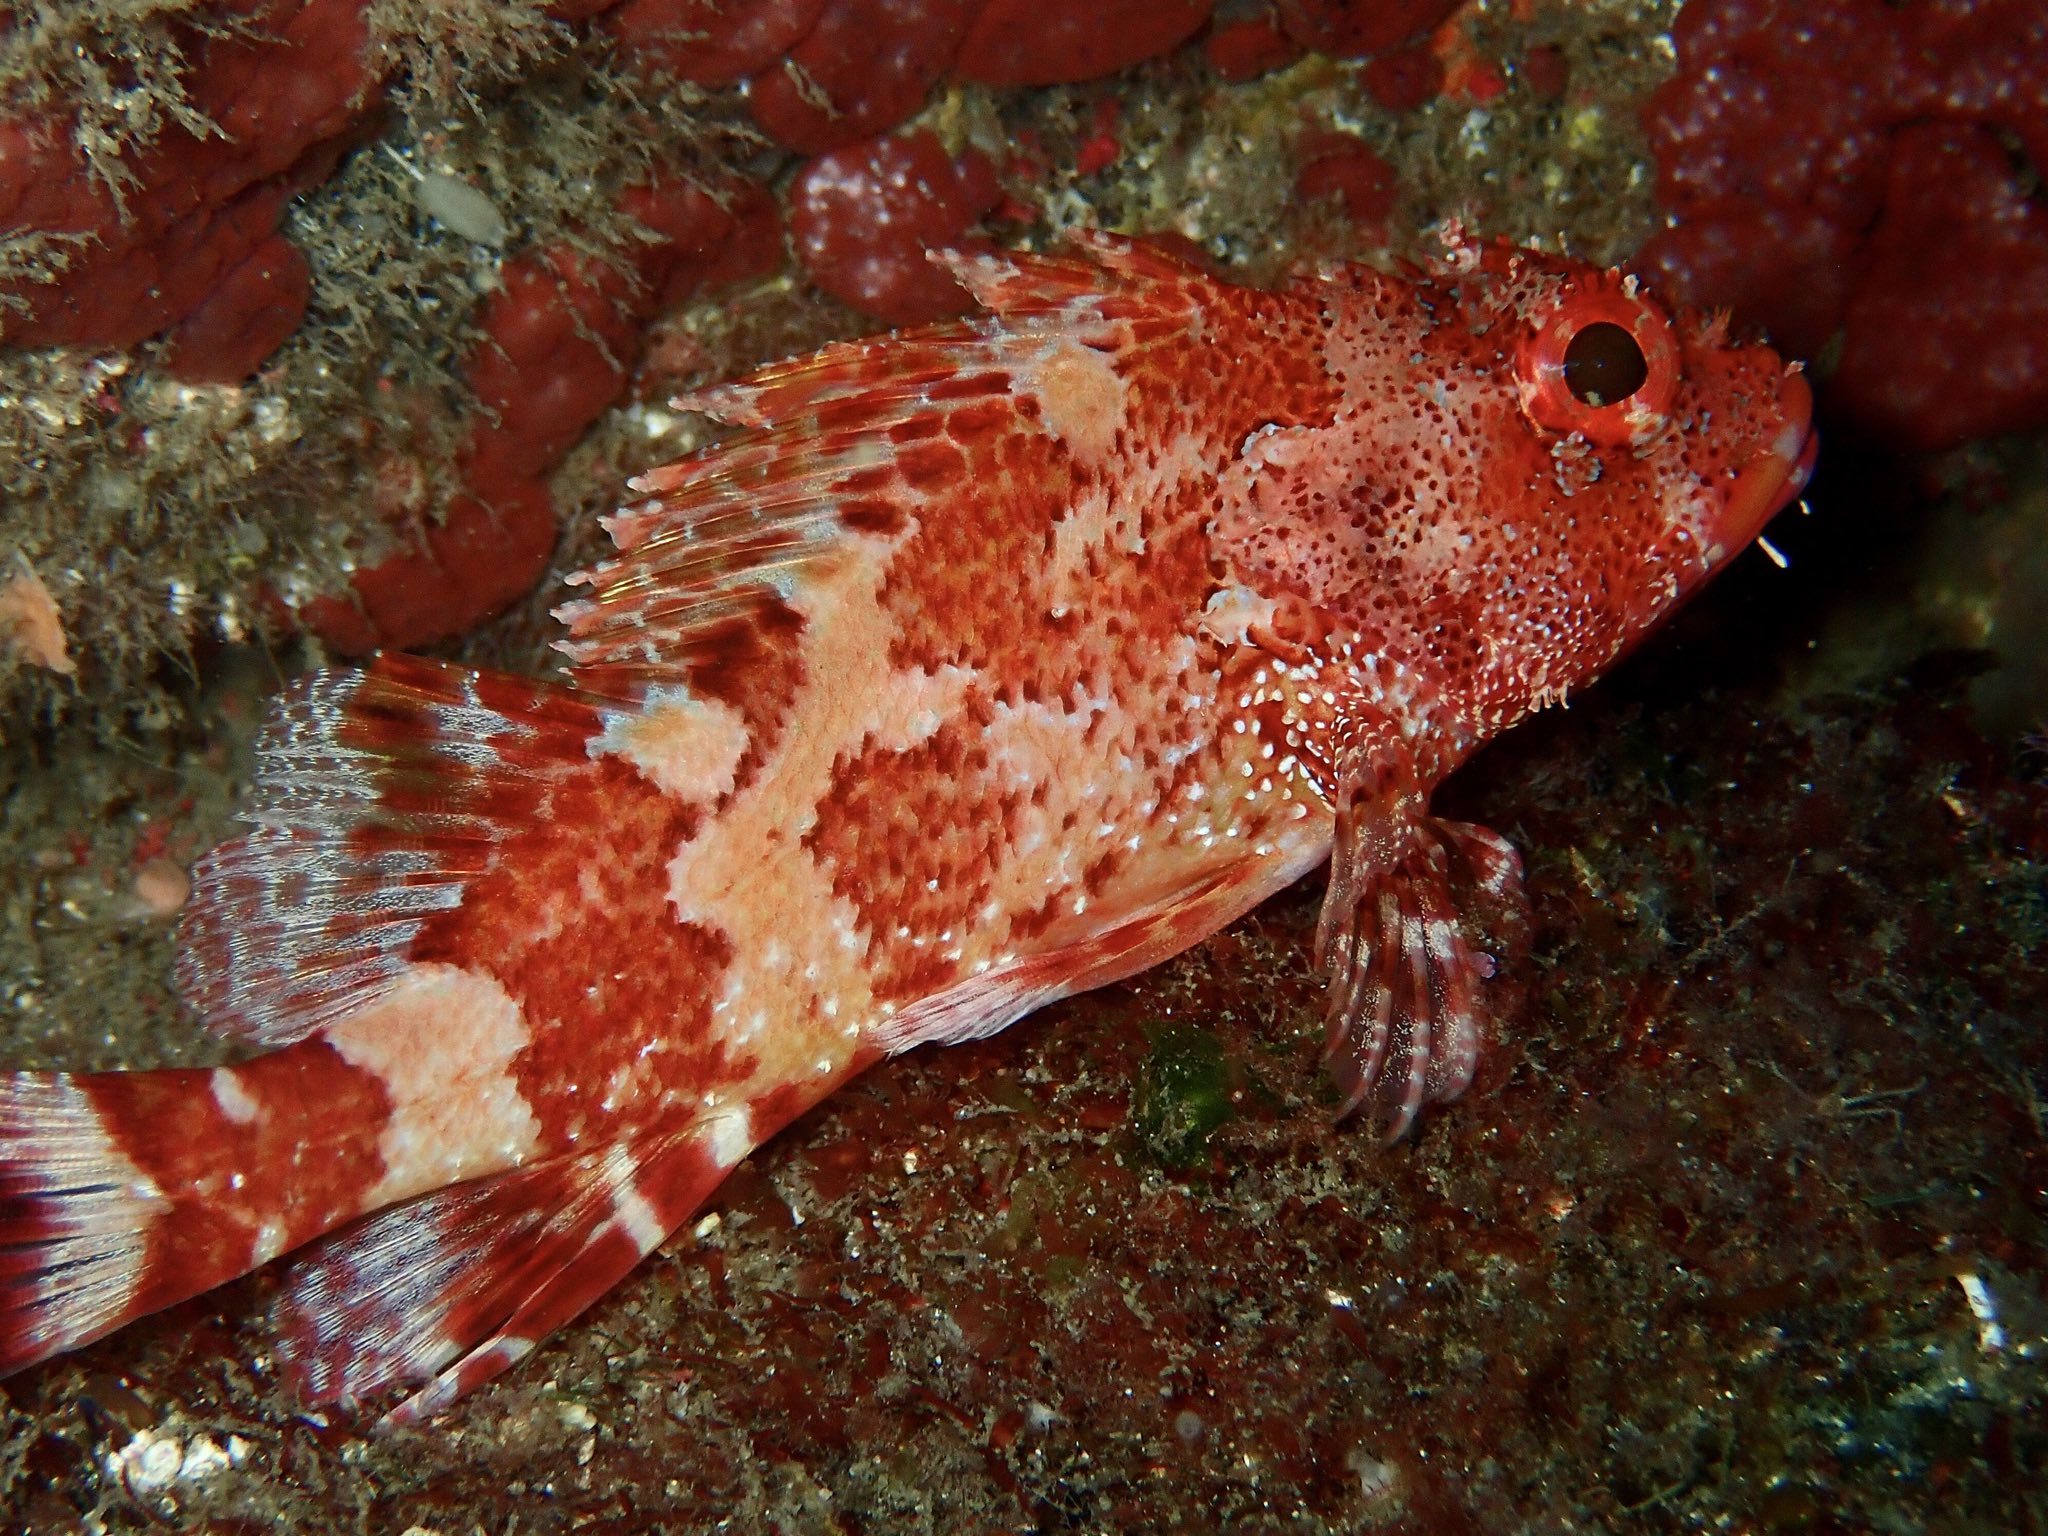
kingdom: Animalia
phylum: Chordata
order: Scorpaeniformes
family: Scorpaenidae
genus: Scorpaena
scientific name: Scorpaena maderensis
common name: Madeira rockfish
